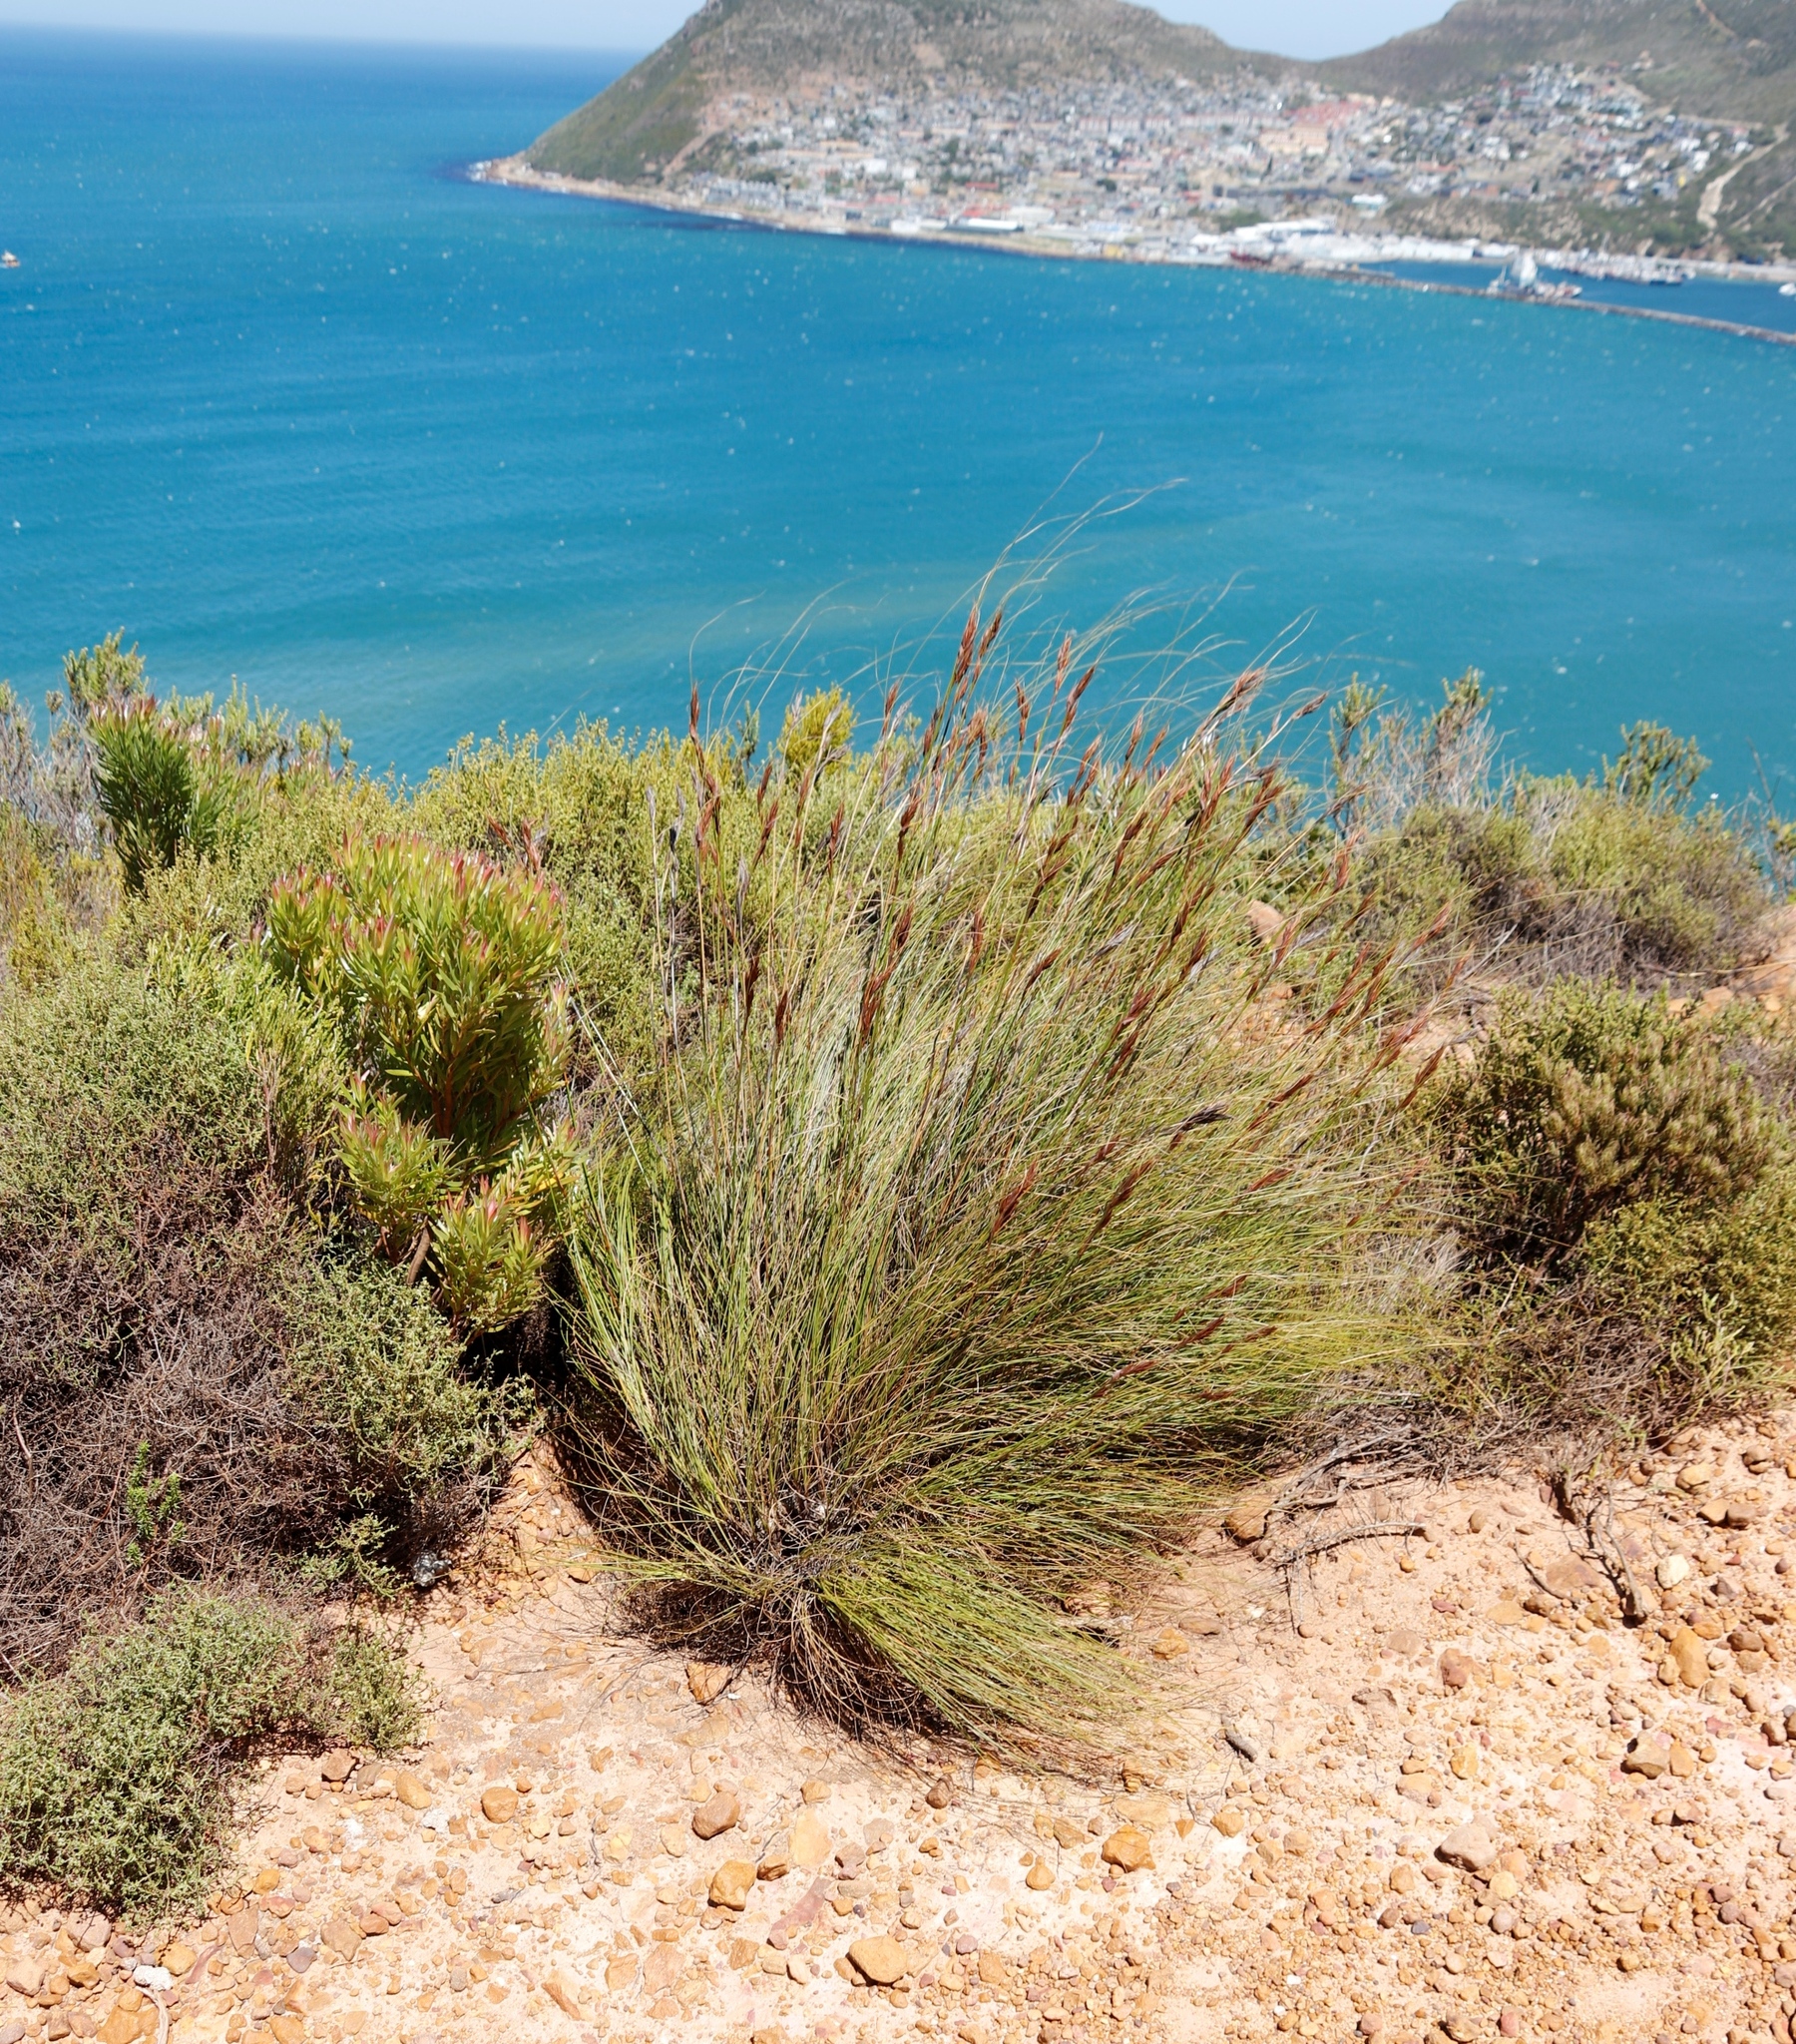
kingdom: Plantae
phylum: Tracheophyta
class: Liliopsida
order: Poales
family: Cyperaceae
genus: Tetraria
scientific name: Tetraria ustulata
